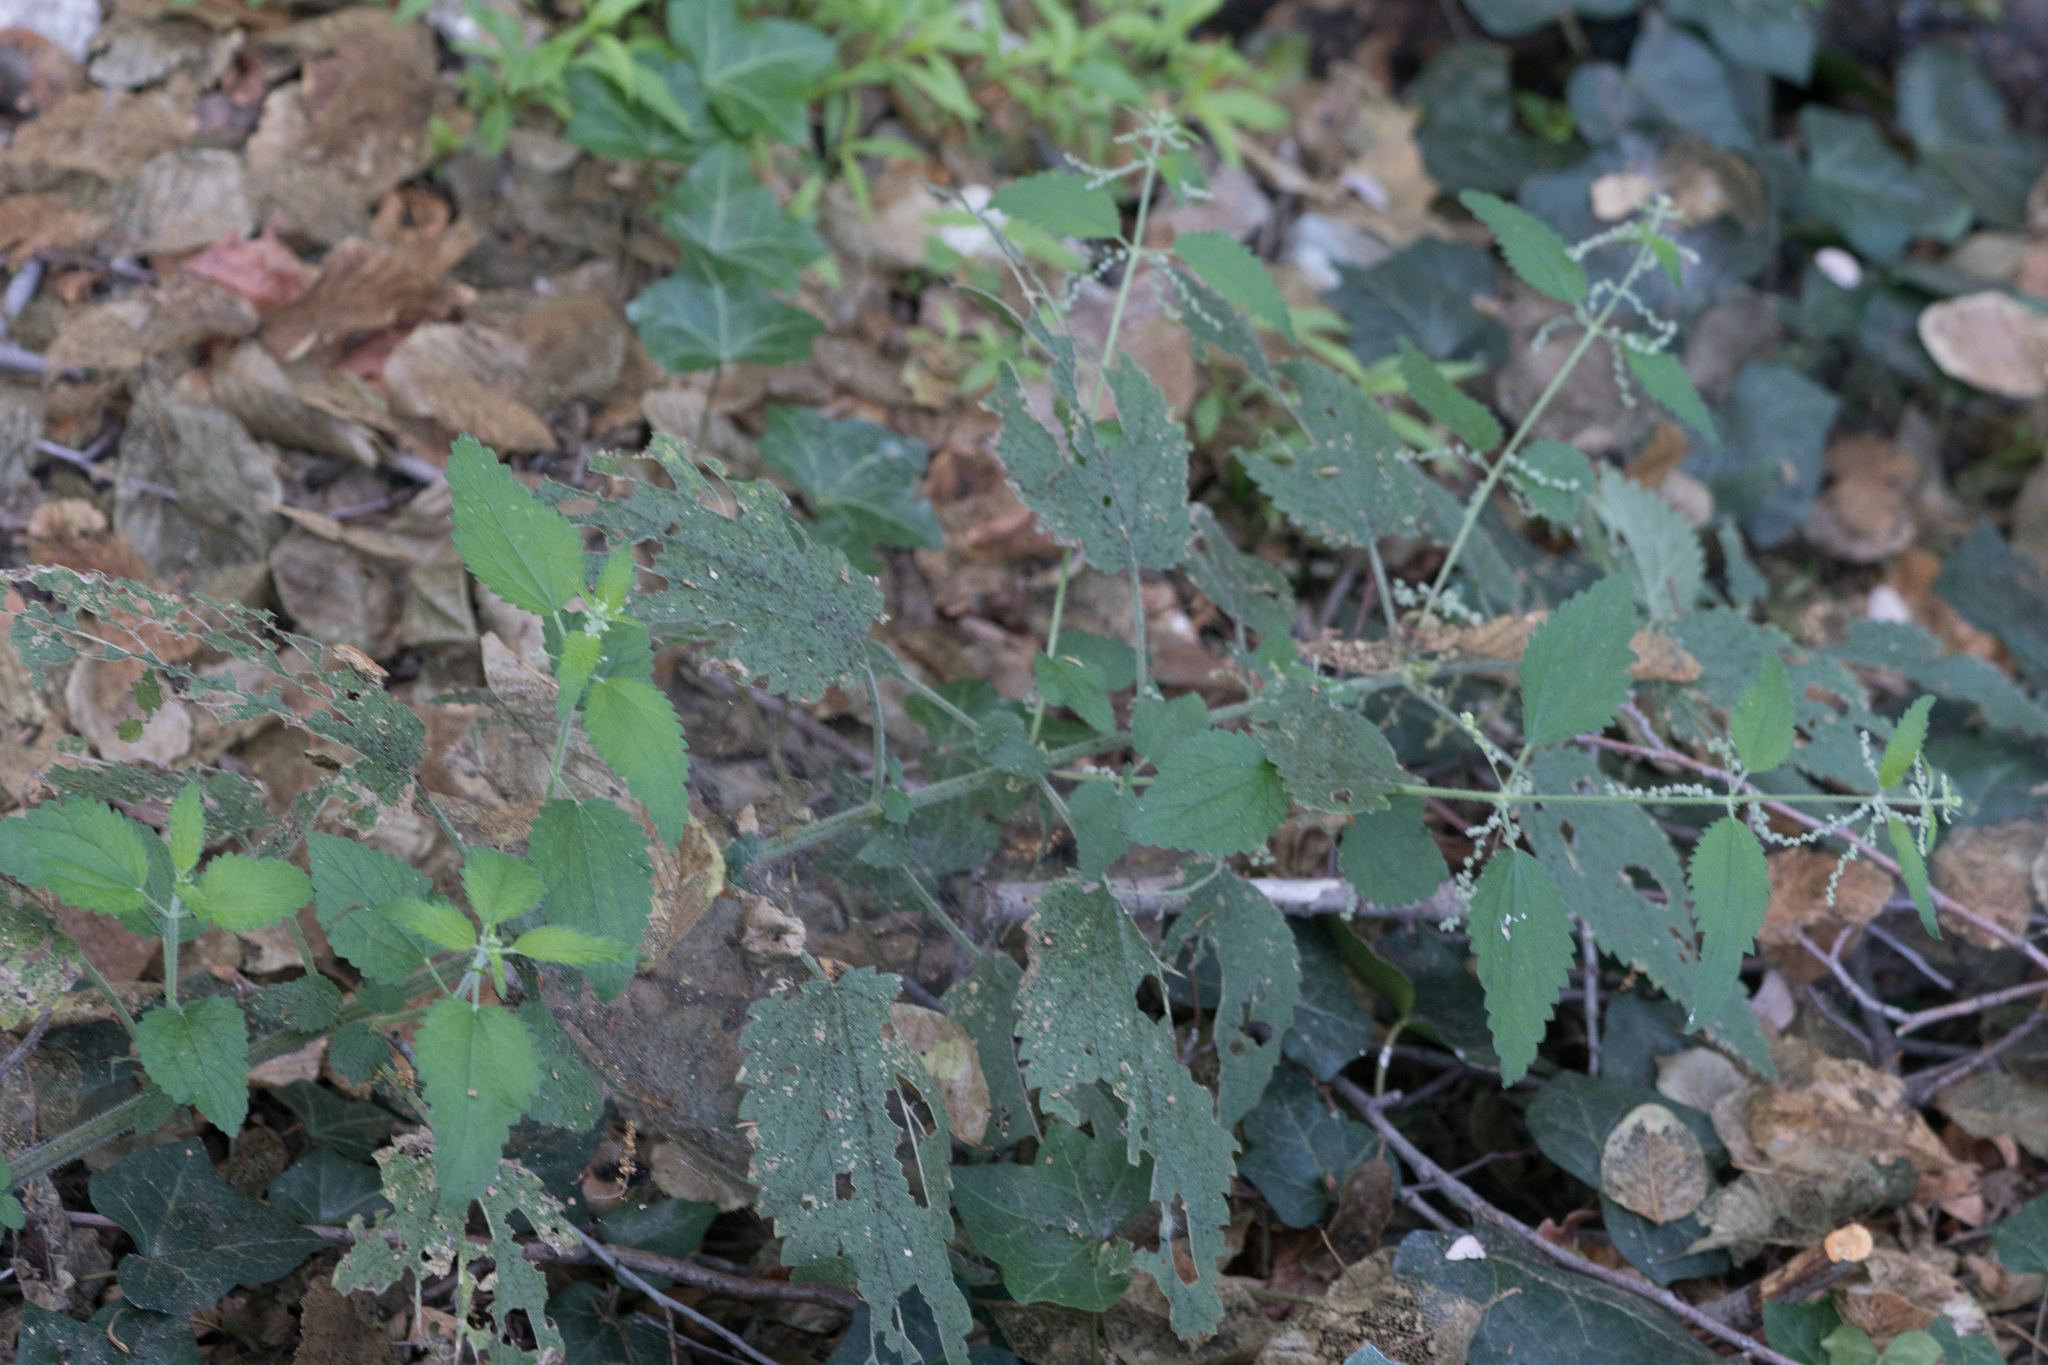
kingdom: Plantae
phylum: Tracheophyta
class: Magnoliopsida
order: Rosales
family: Urticaceae
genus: Urtica
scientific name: Urtica dioica
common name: Common nettle
